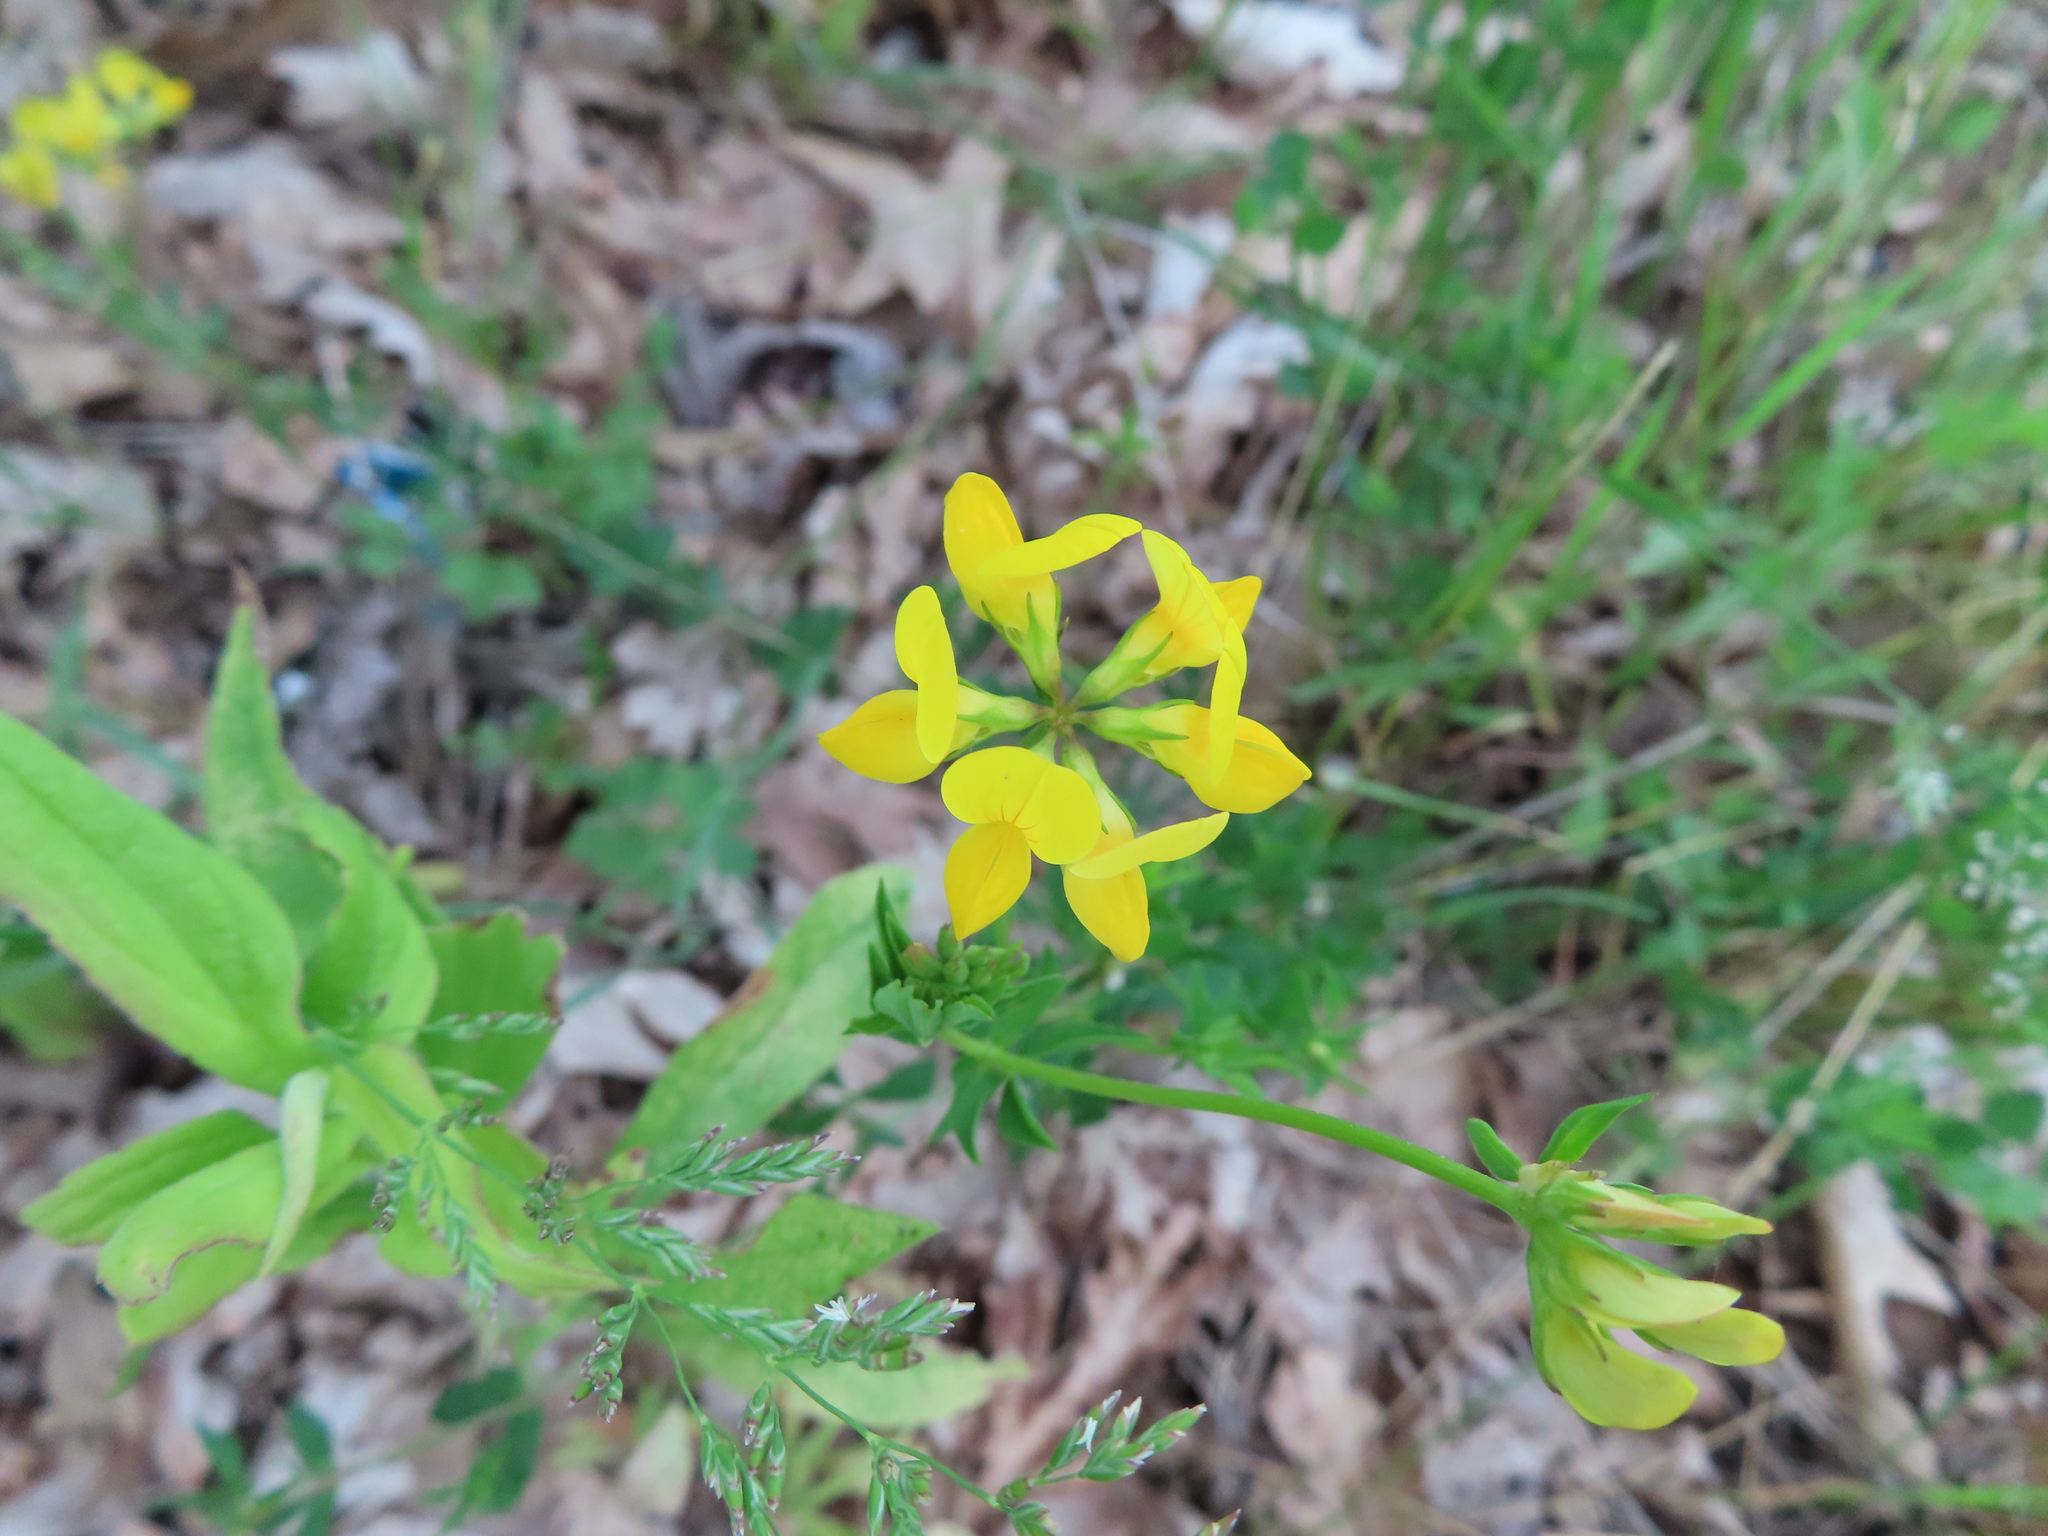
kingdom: Plantae
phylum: Tracheophyta
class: Magnoliopsida
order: Fabales
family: Fabaceae
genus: Lotus
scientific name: Lotus corniculatus
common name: Common bird's-foot-trefoil
